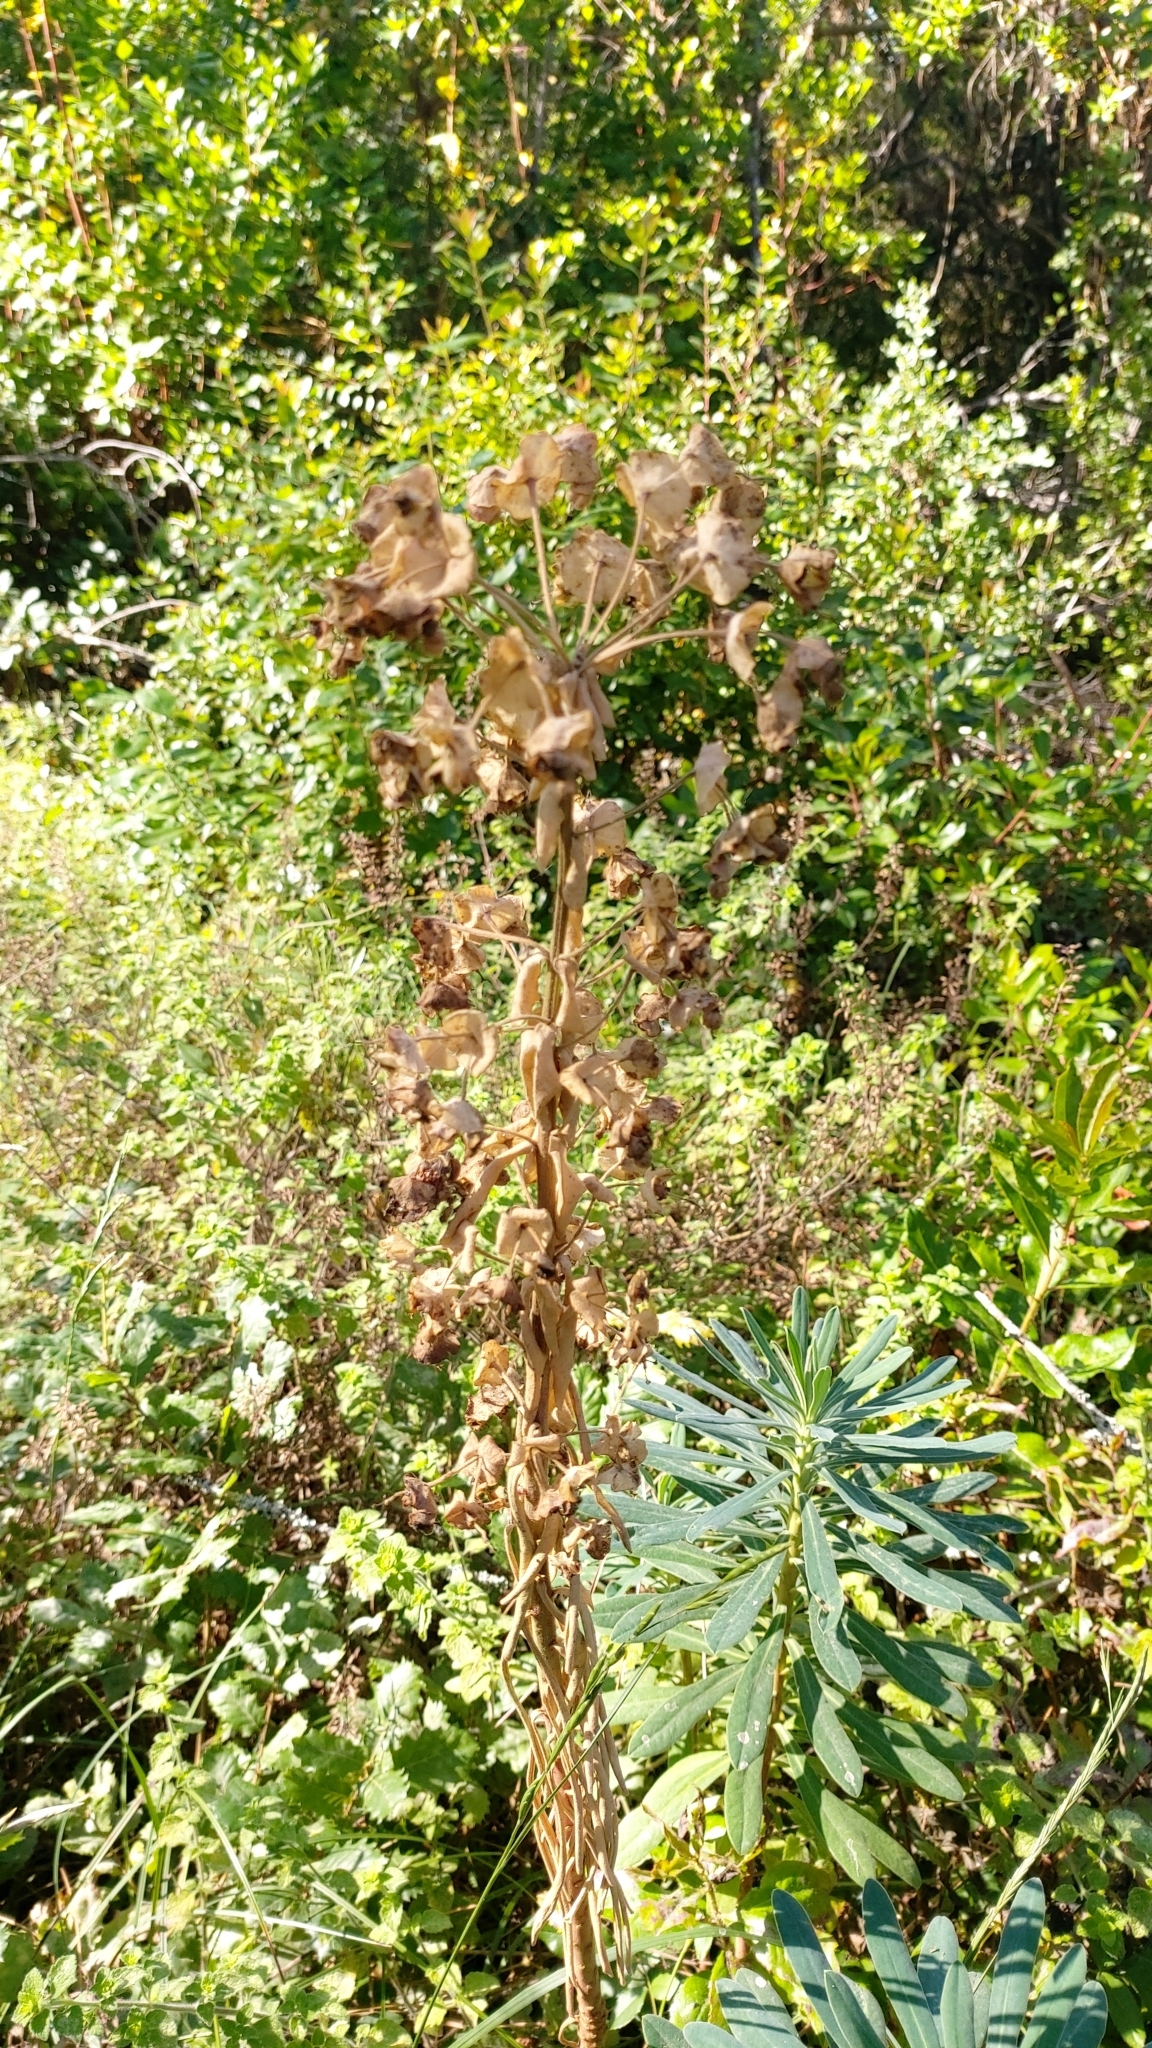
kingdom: Plantae
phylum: Tracheophyta
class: Magnoliopsida
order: Malpighiales
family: Euphorbiaceae
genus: Euphorbia
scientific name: Euphorbia characias
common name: Mediterranean spurge
